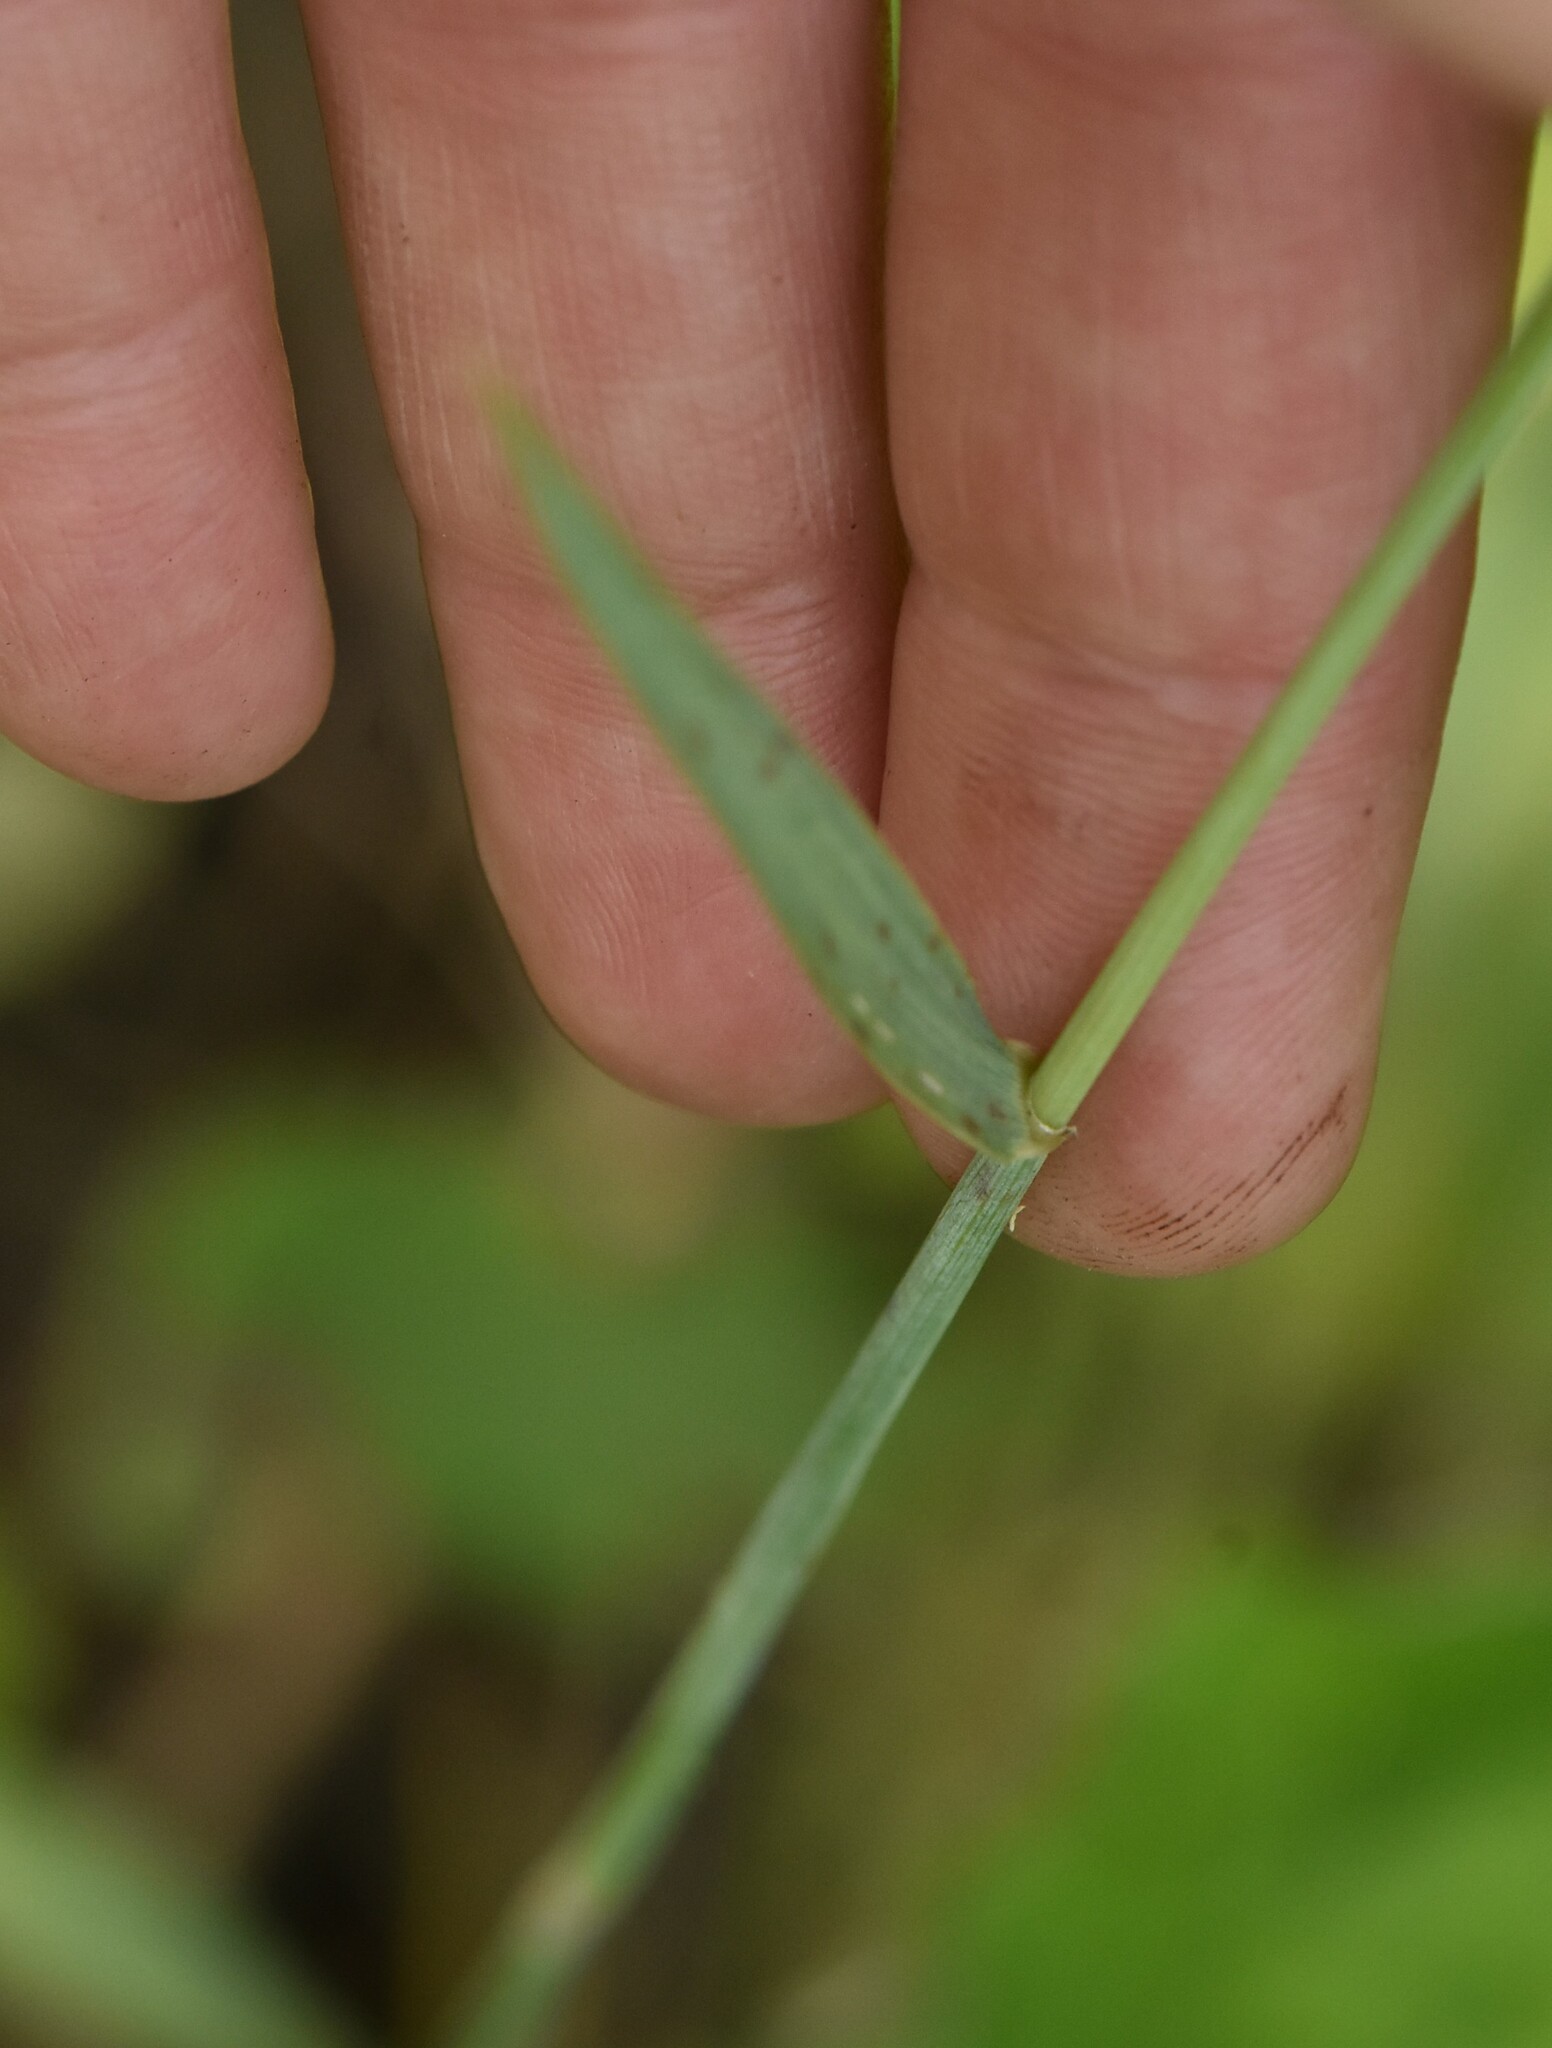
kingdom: Plantae
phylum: Tracheophyta
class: Liliopsida
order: Poales
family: Poaceae
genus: Elymus
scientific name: Elymus repens
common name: Quackgrass
